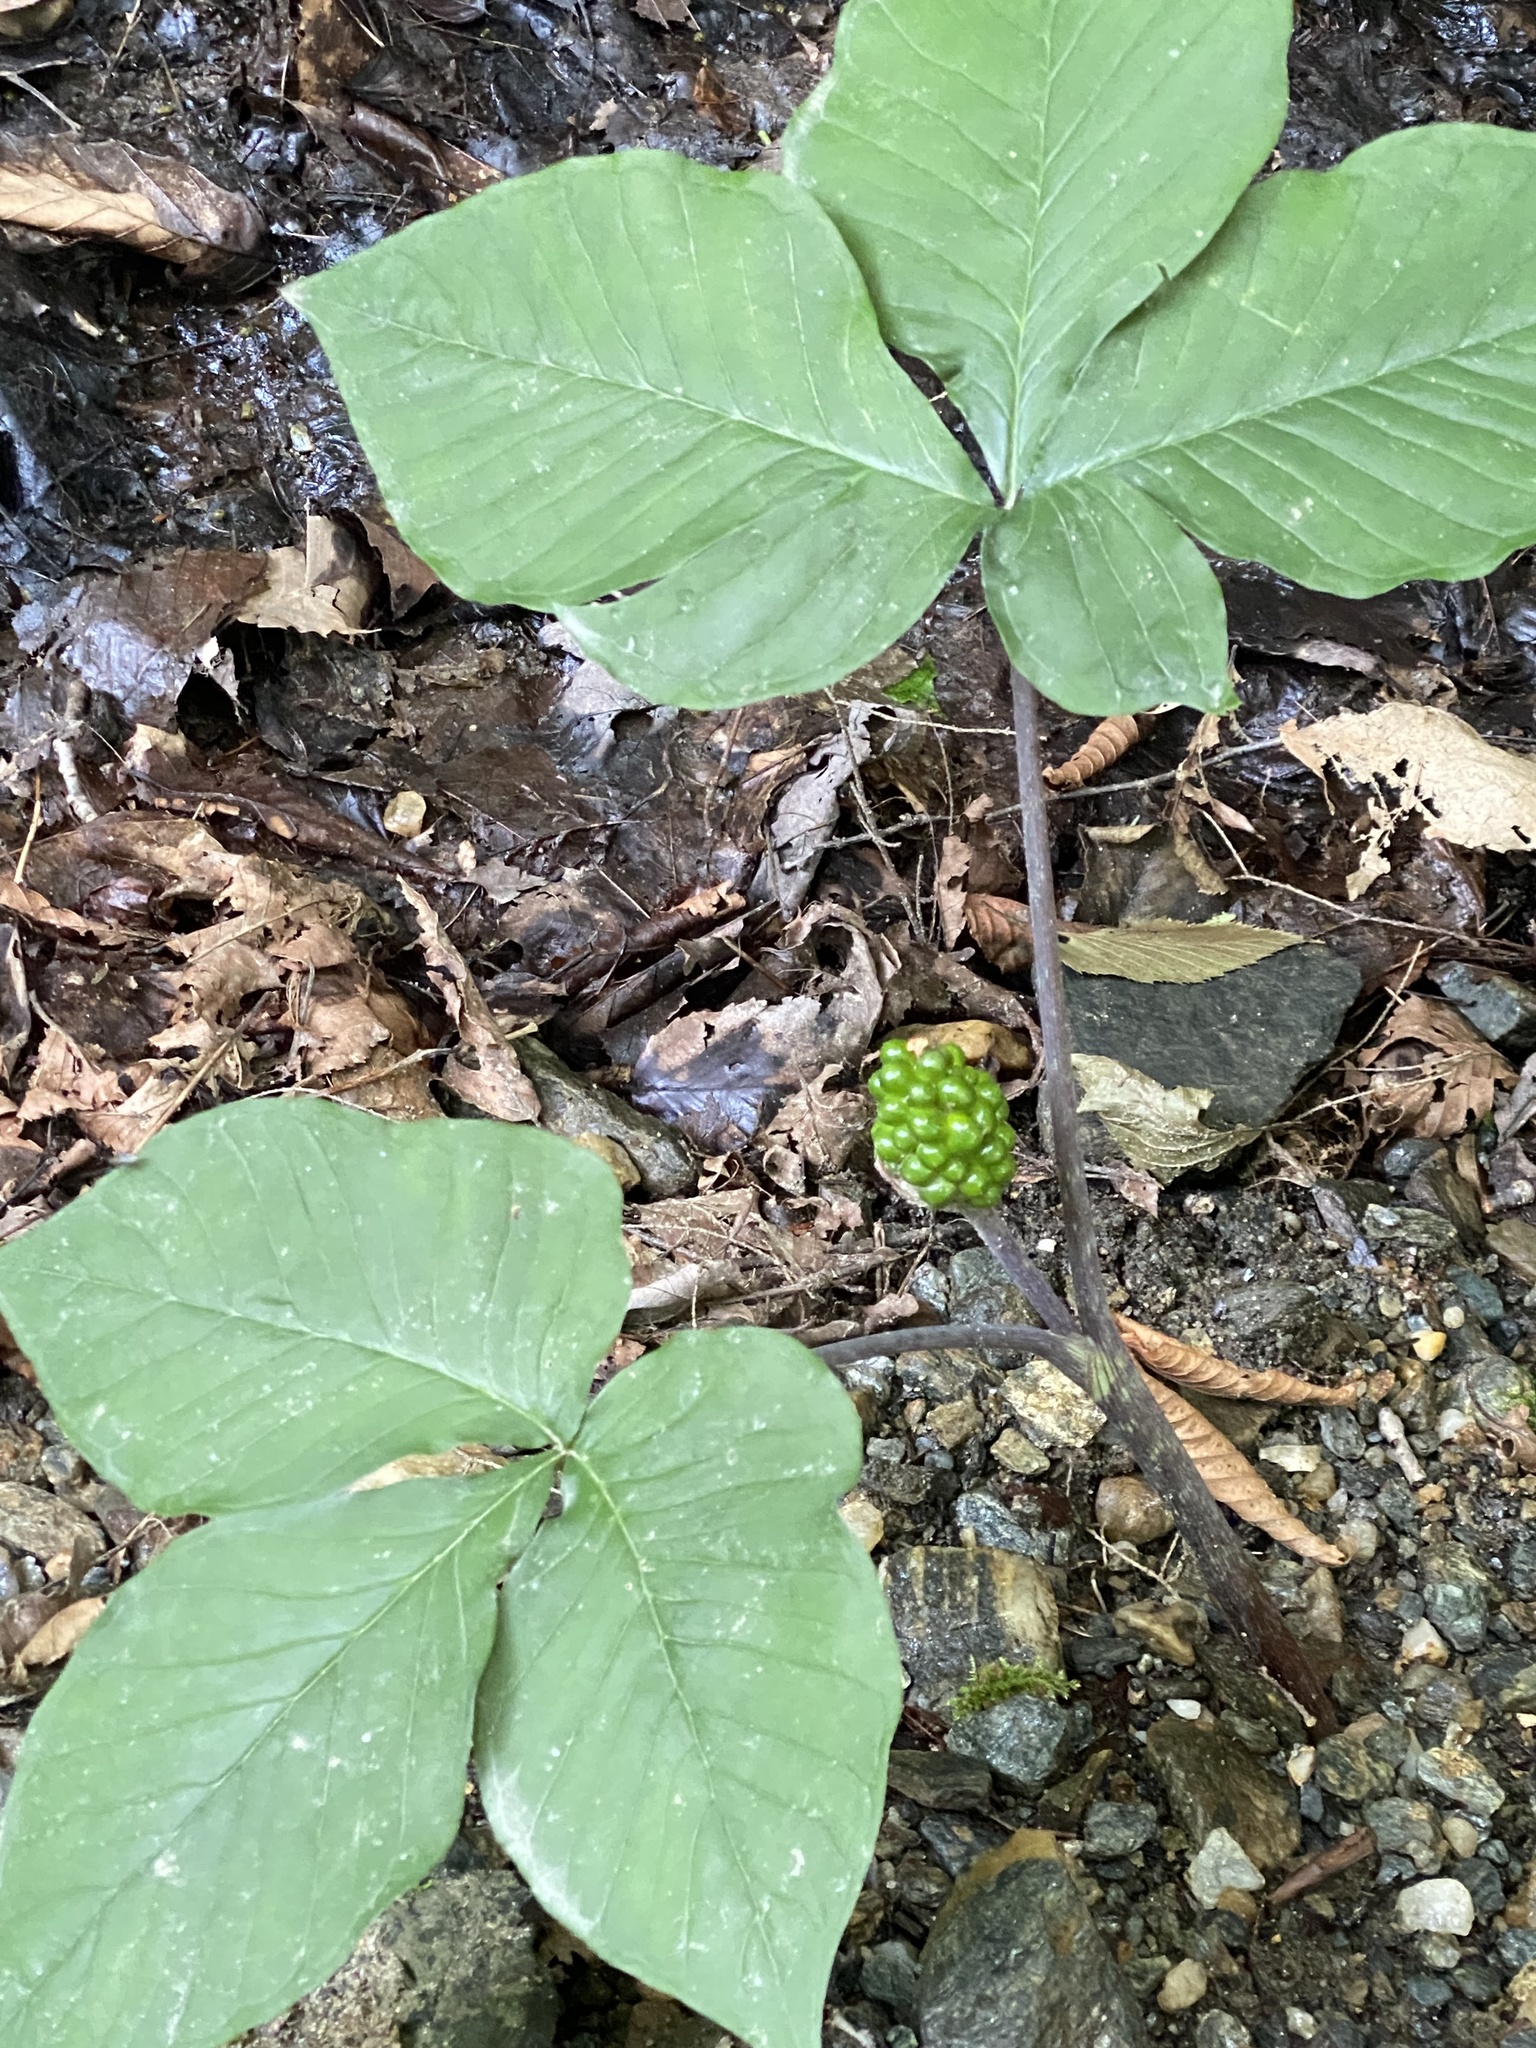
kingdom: Plantae
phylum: Tracheophyta
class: Liliopsida
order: Alismatales
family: Araceae
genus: Arisaema
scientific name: Arisaema triphyllum
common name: Jack-in-the-pulpit
